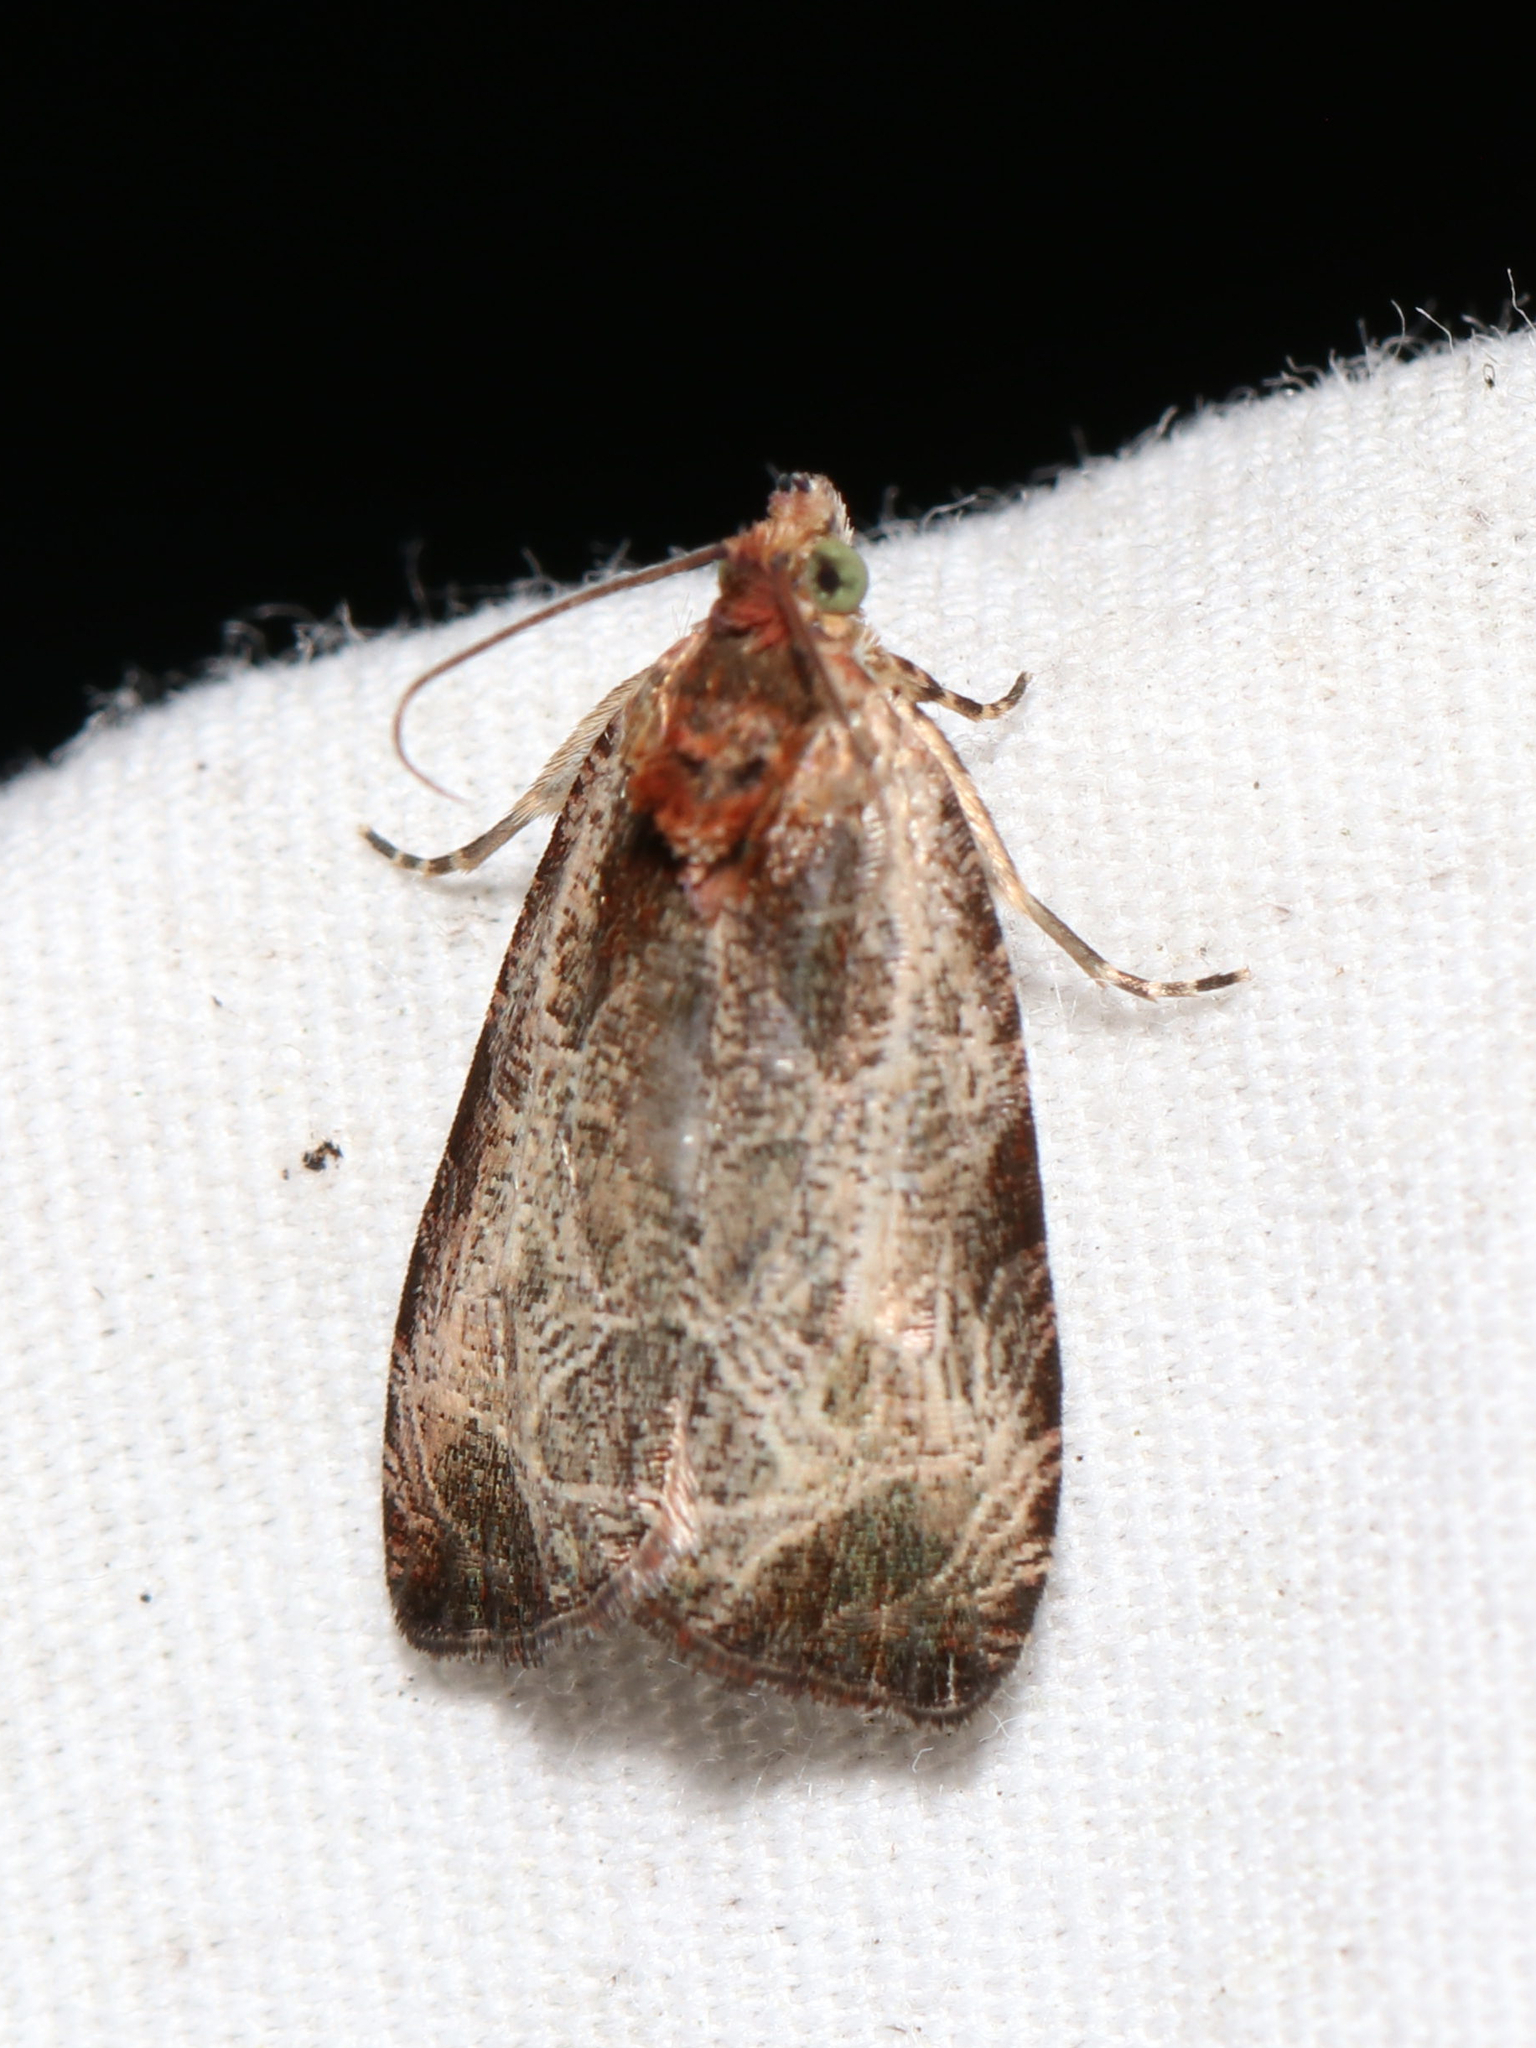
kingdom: Animalia
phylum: Arthropoda
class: Insecta
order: Lepidoptera
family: Tortricidae
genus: Olethreutes
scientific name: Olethreutes inornatana
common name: Inornate olethreutes moth
